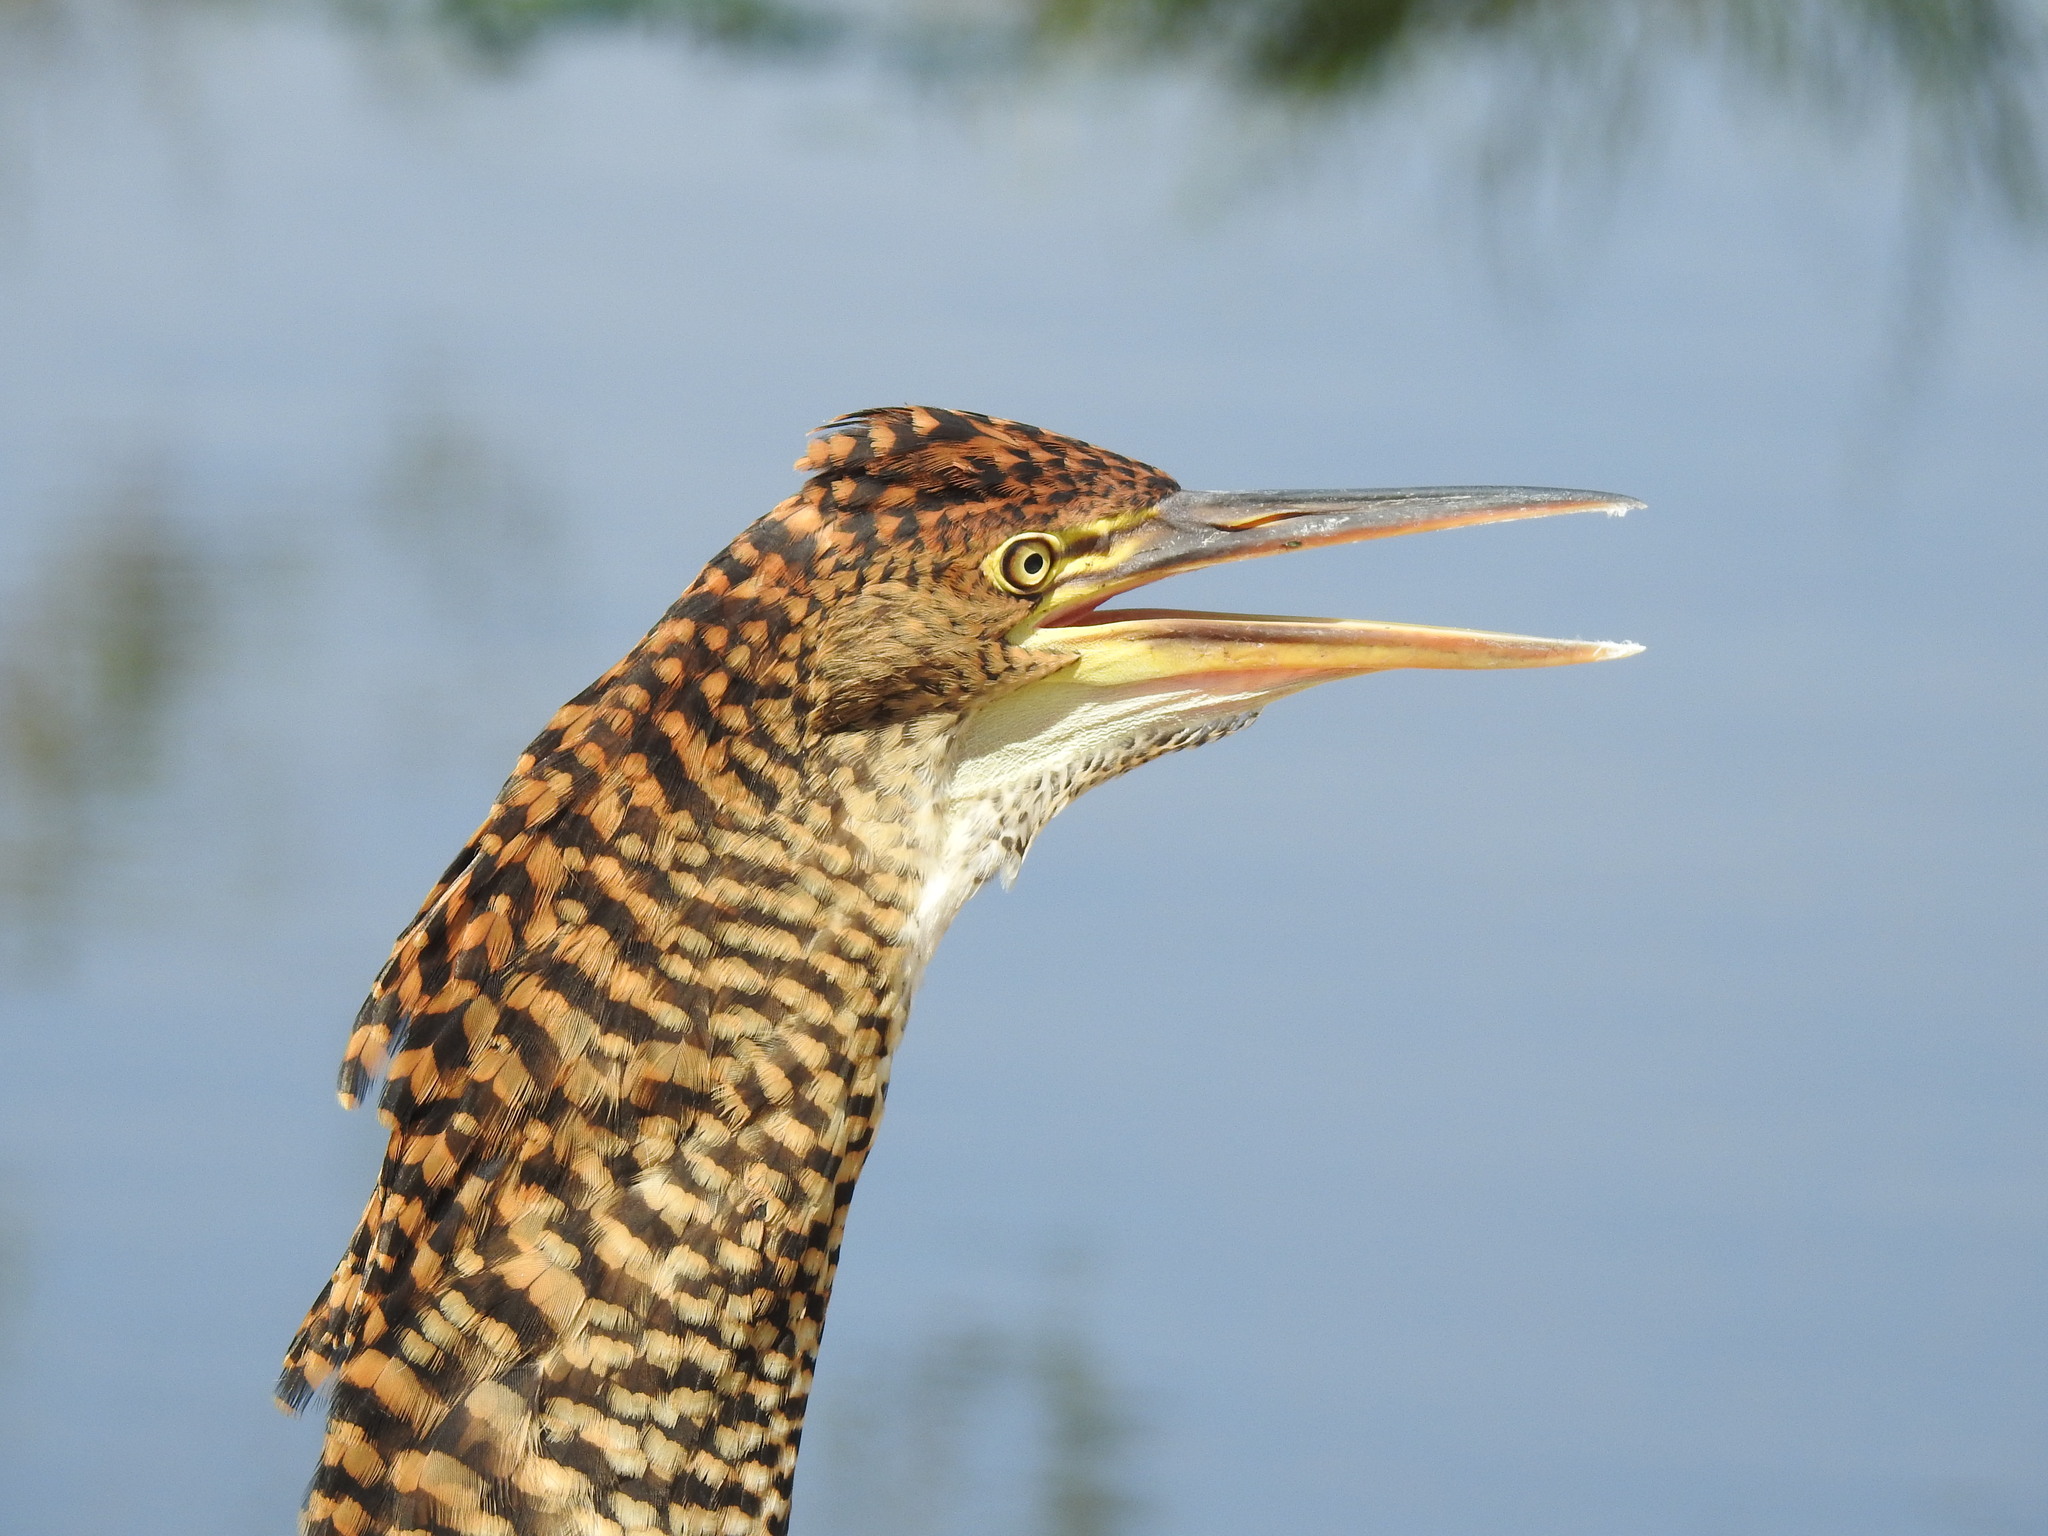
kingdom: Animalia
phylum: Chordata
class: Aves
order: Pelecaniformes
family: Ardeidae
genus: Tigrisoma
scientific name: Tigrisoma lineatum
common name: Rufescent tiger-heron
